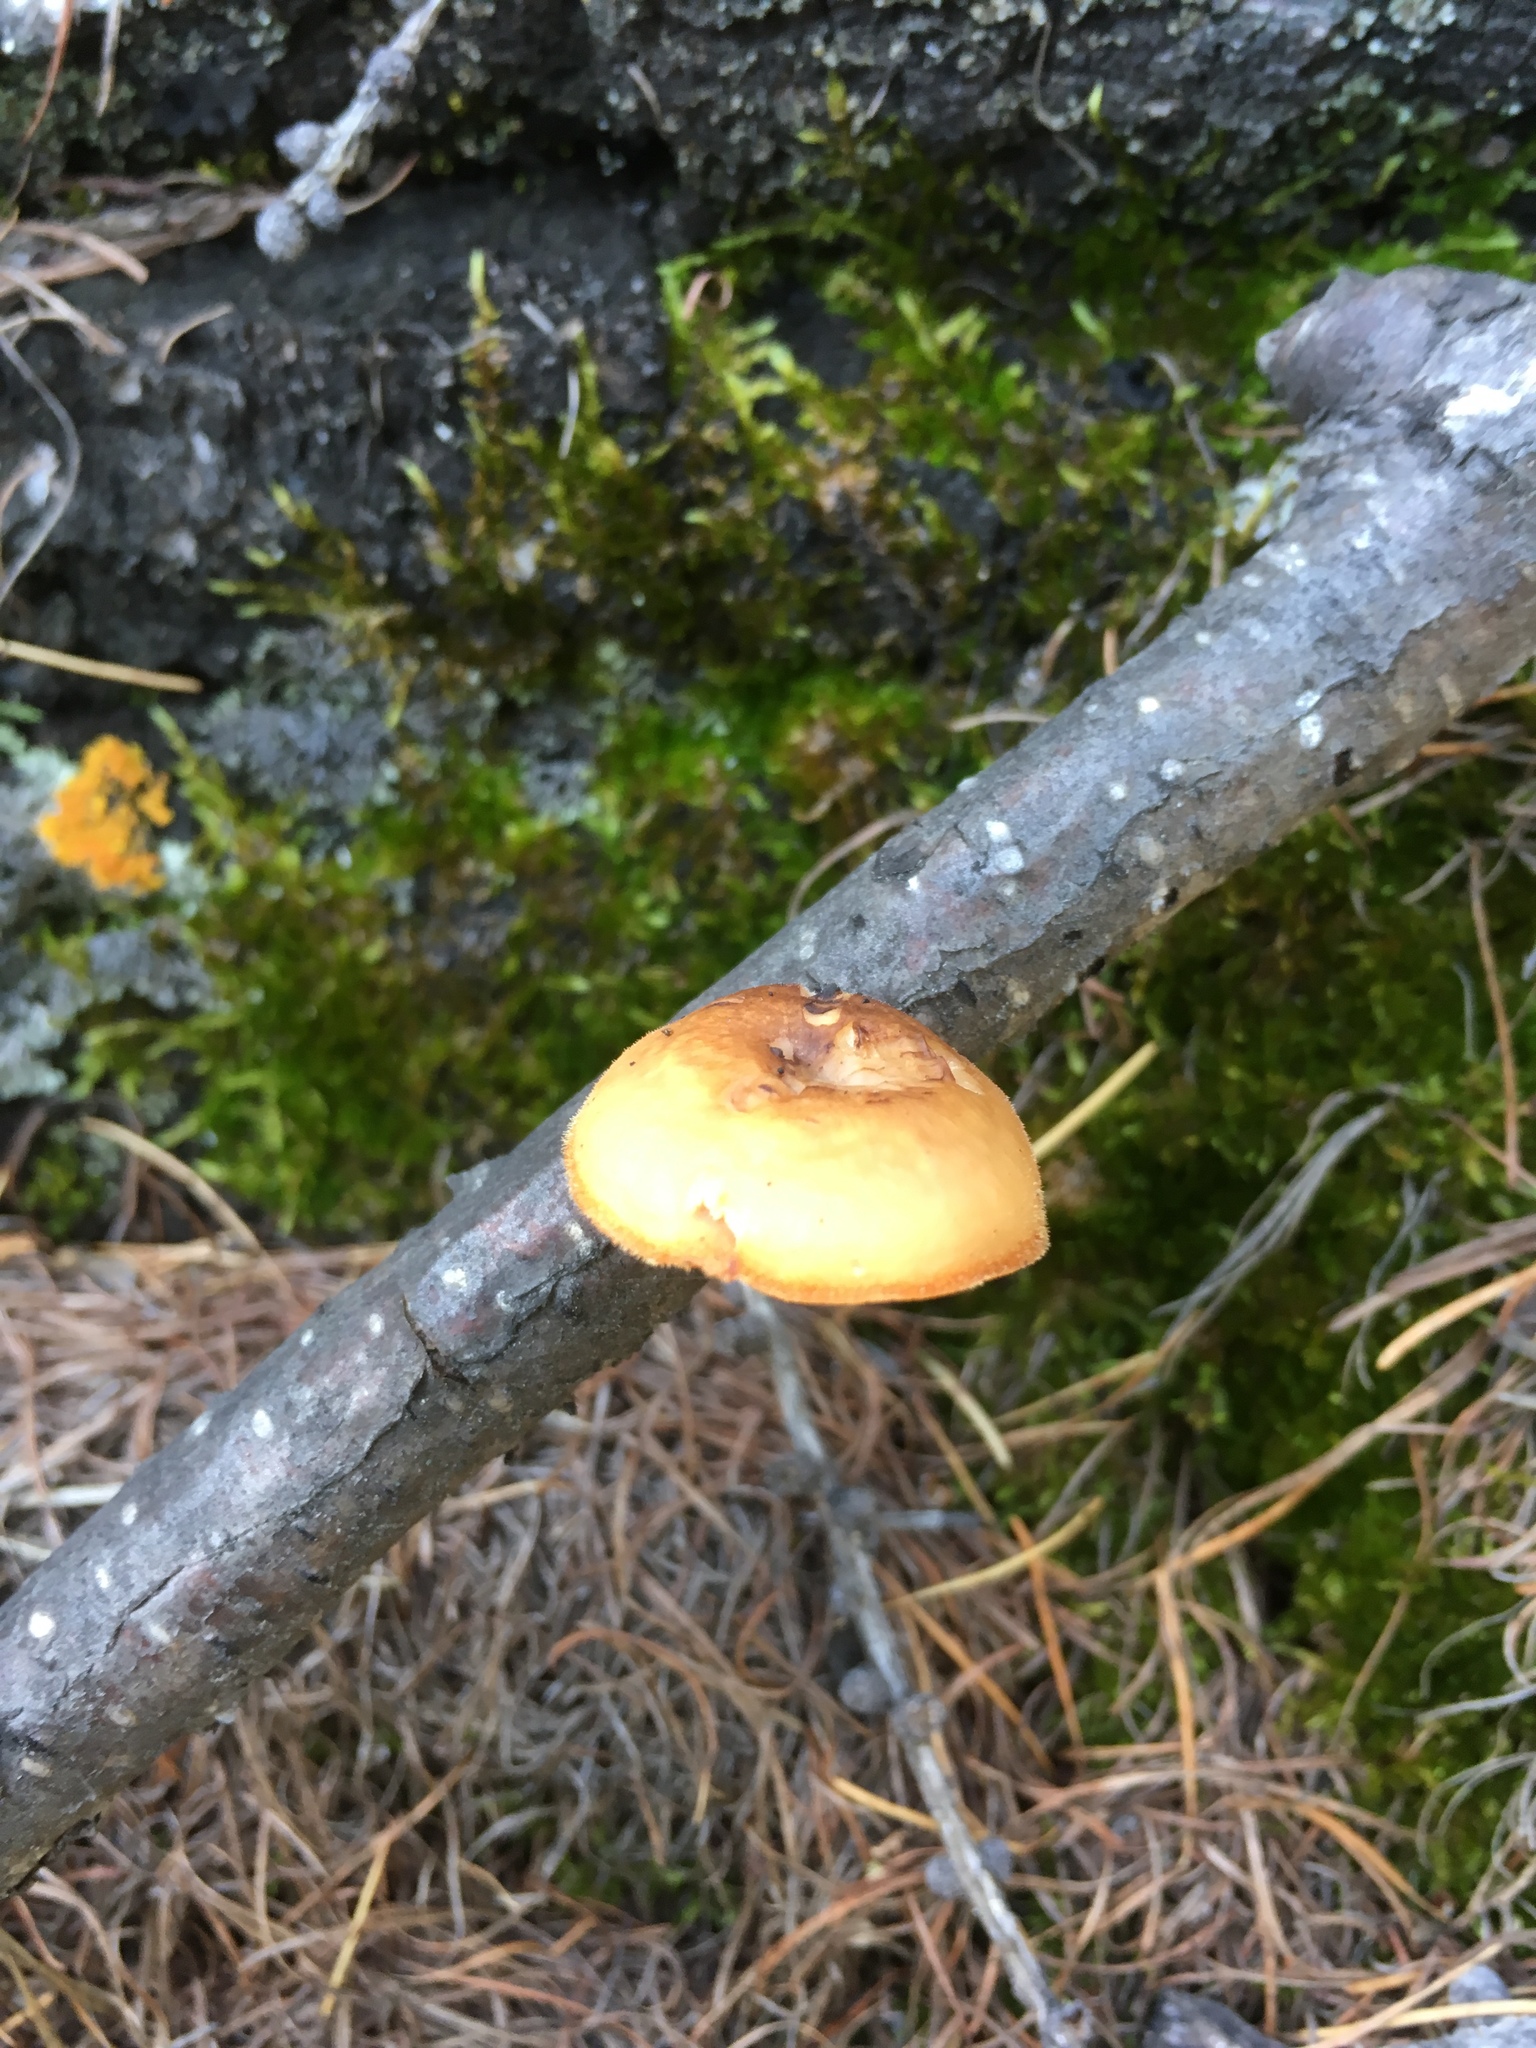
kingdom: Fungi
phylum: Basidiomycota
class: Agaricomycetes
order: Polyporales
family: Polyporaceae
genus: Lentinus
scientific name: Lentinus brumalis
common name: Winter polypore
